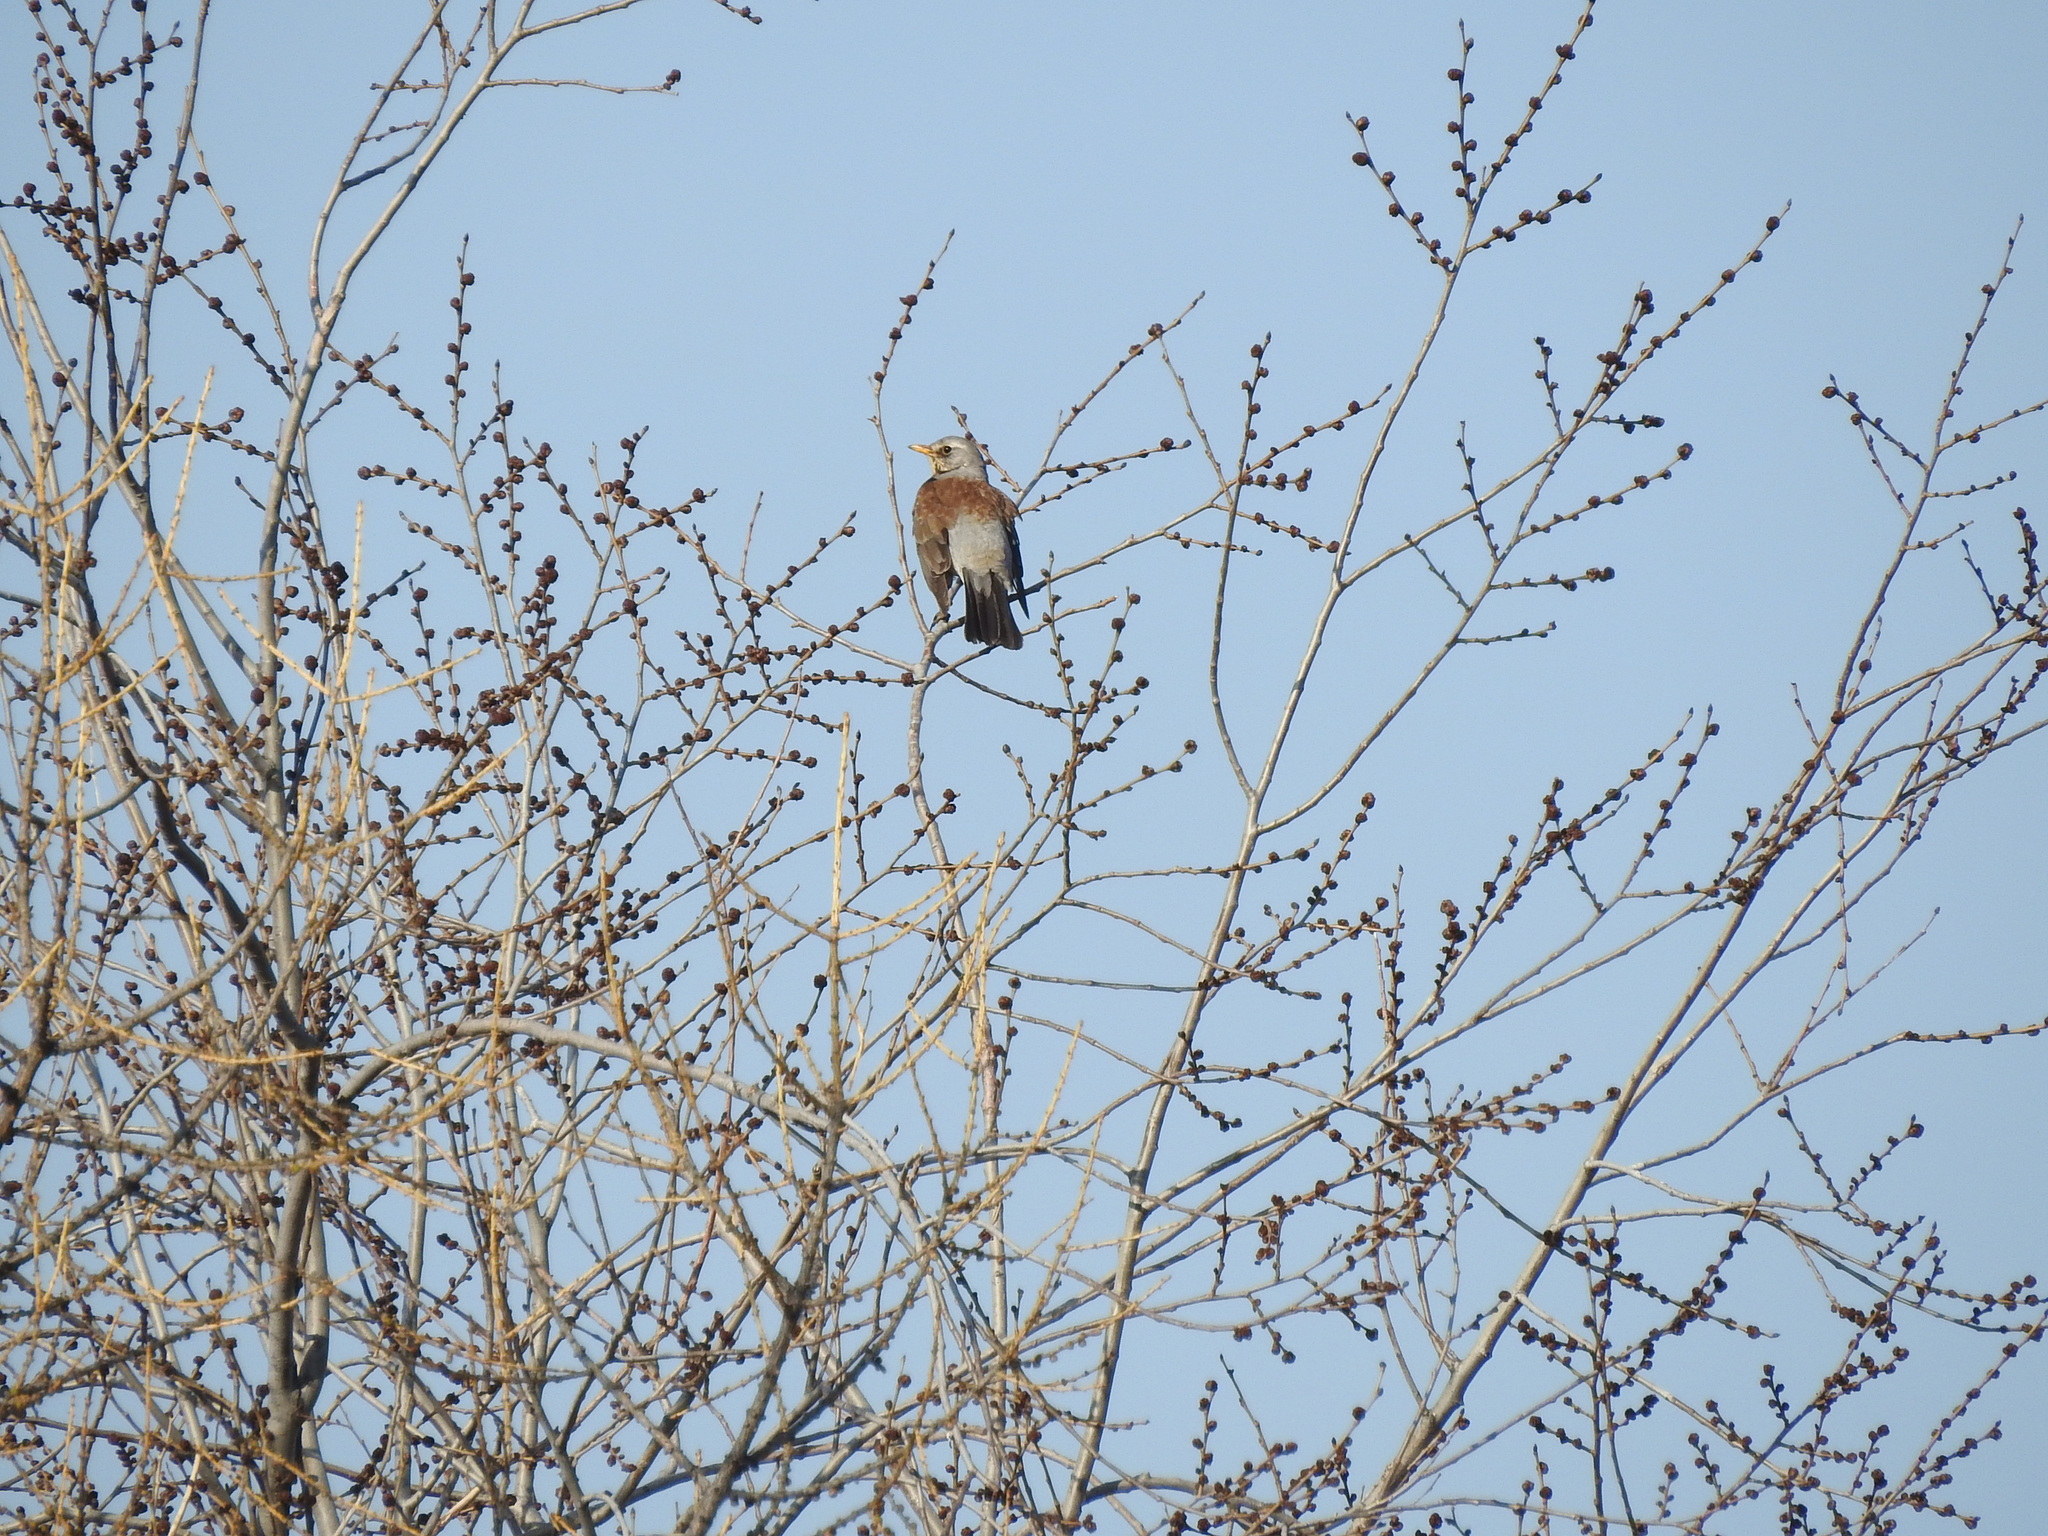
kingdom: Animalia
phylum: Chordata
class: Aves
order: Passeriformes
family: Turdidae
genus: Turdus
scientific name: Turdus pilaris
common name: Fieldfare
